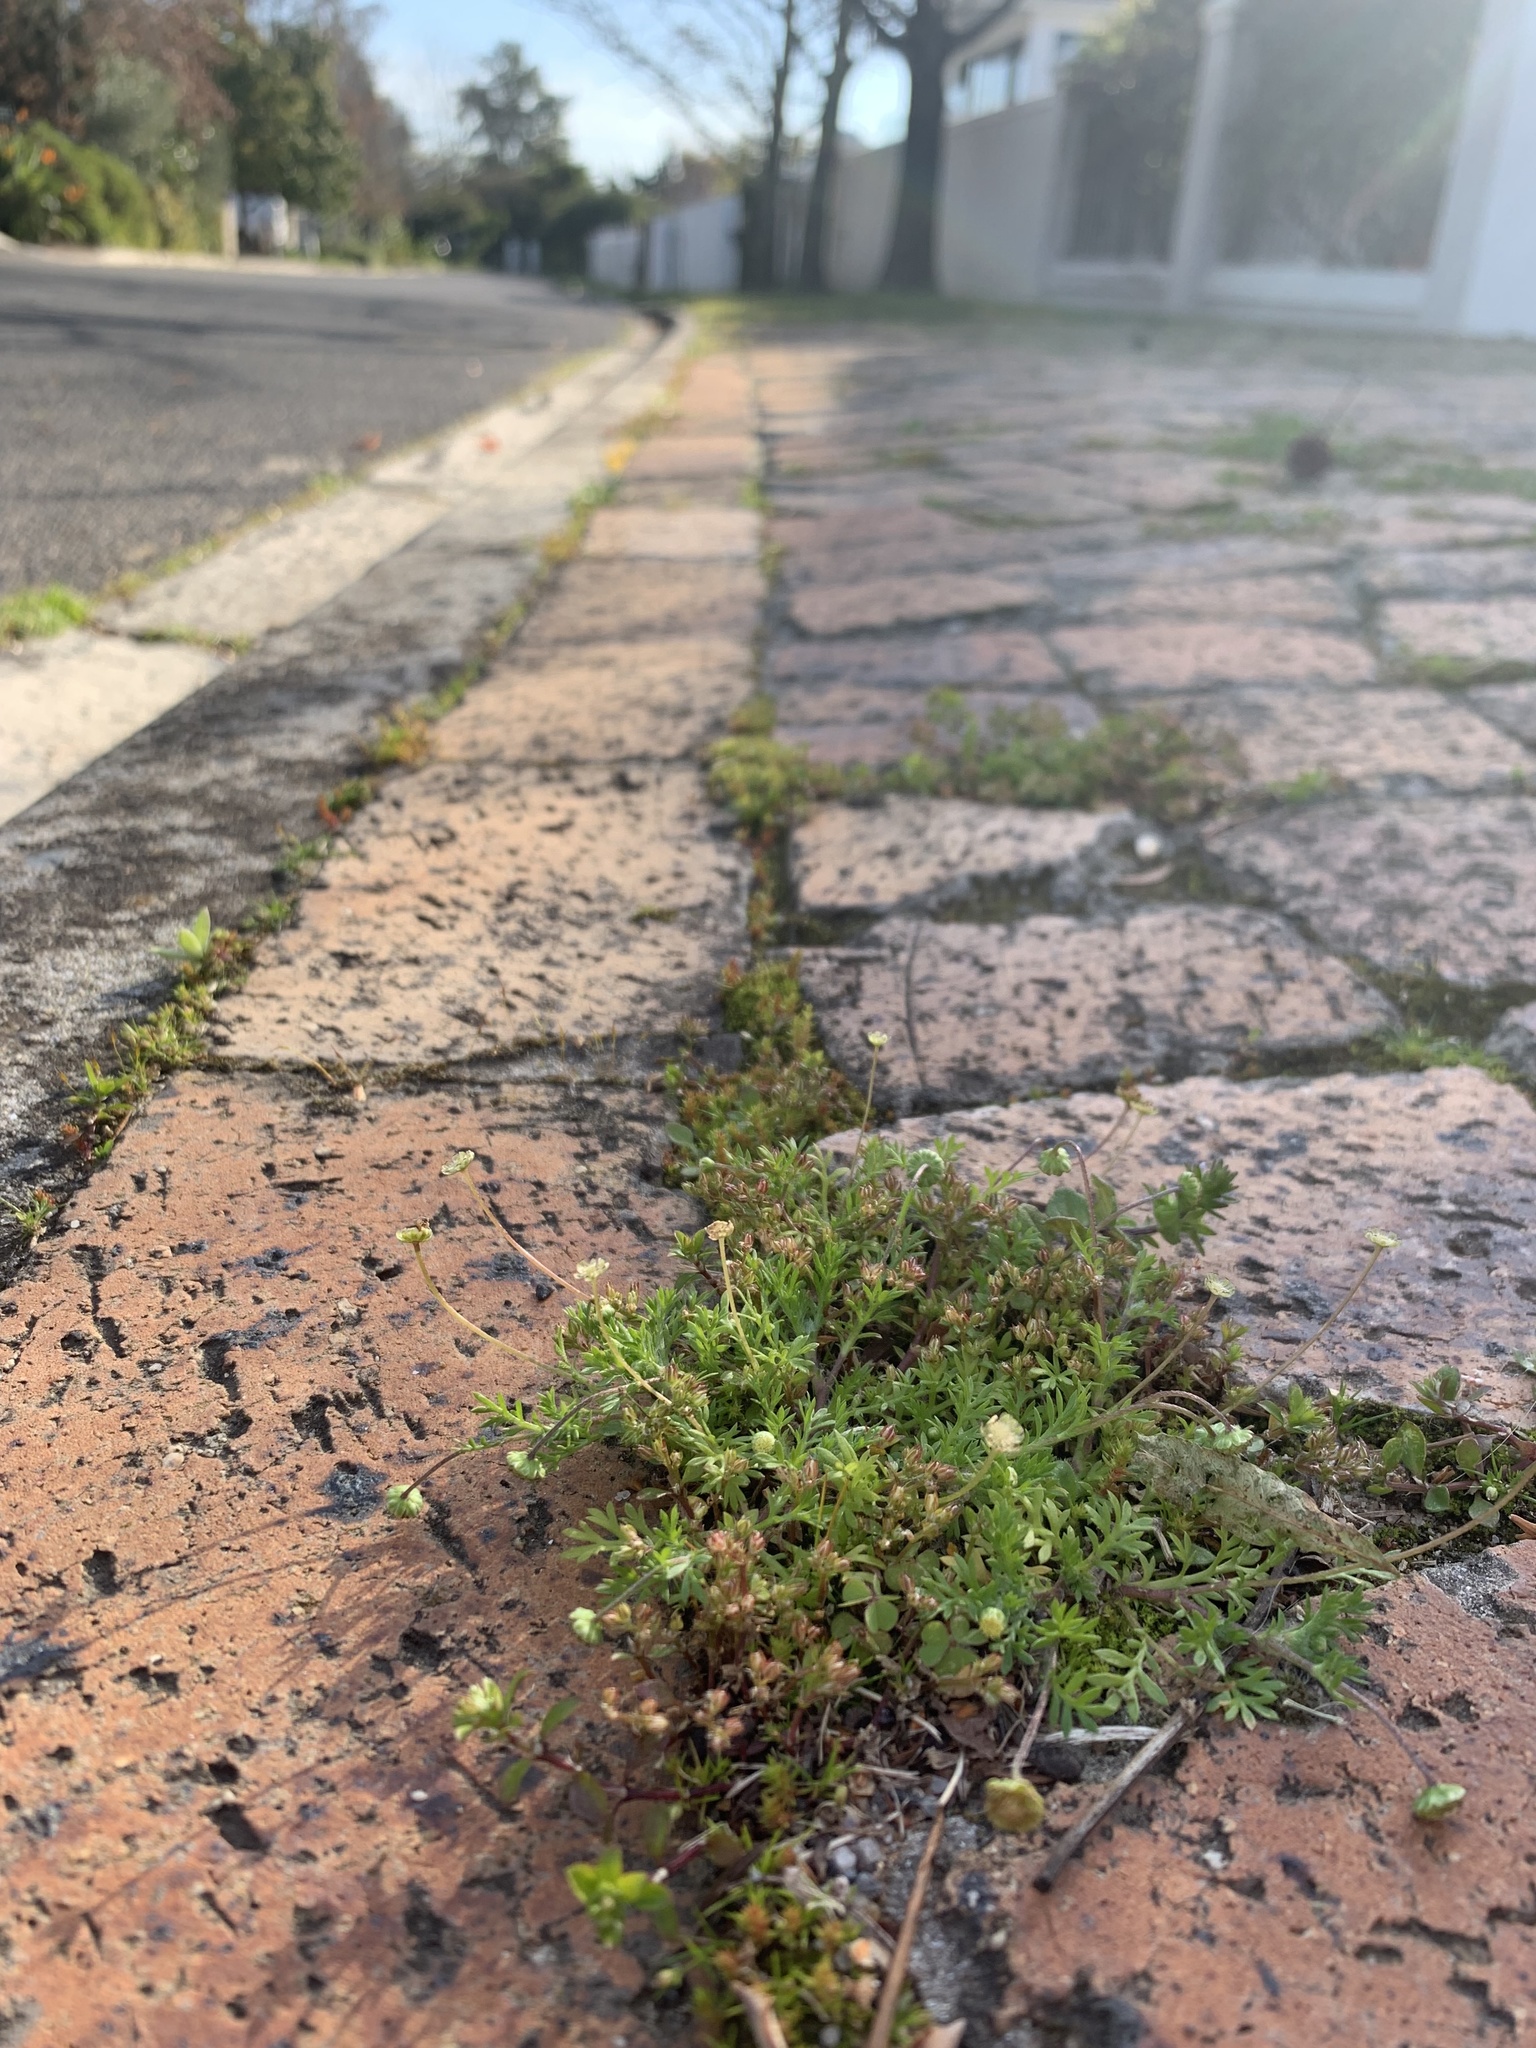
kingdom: Plantae
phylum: Tracheophyta
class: Magnoliopsida
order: Asterales
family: Asteraceae
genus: Cotula
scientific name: Cotula australis
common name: Australian waterbuttons
